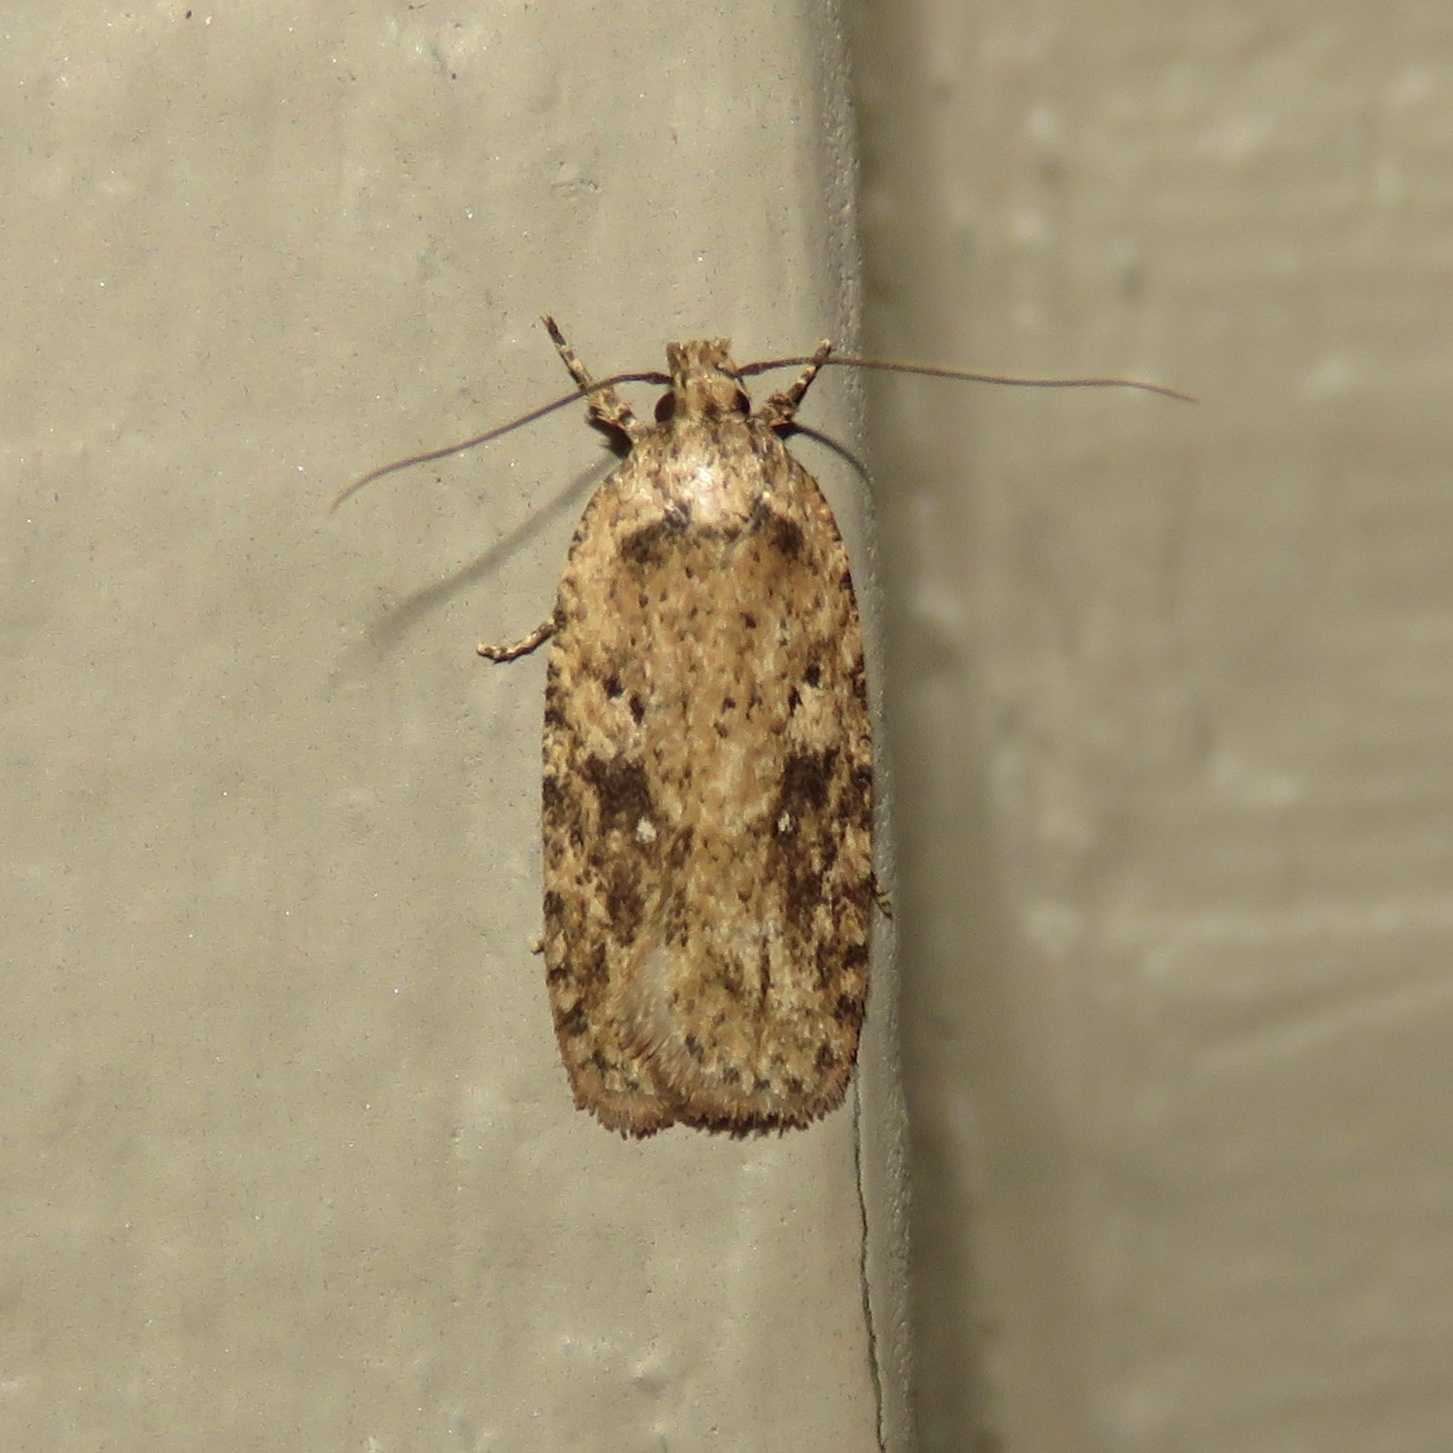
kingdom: Animalia
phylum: Arthropoda
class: Insecta
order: Lepidoptera
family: Depressariidae
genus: Agonopterix
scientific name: Agonopterix pulvipennella
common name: Goldenrod leafffolder
